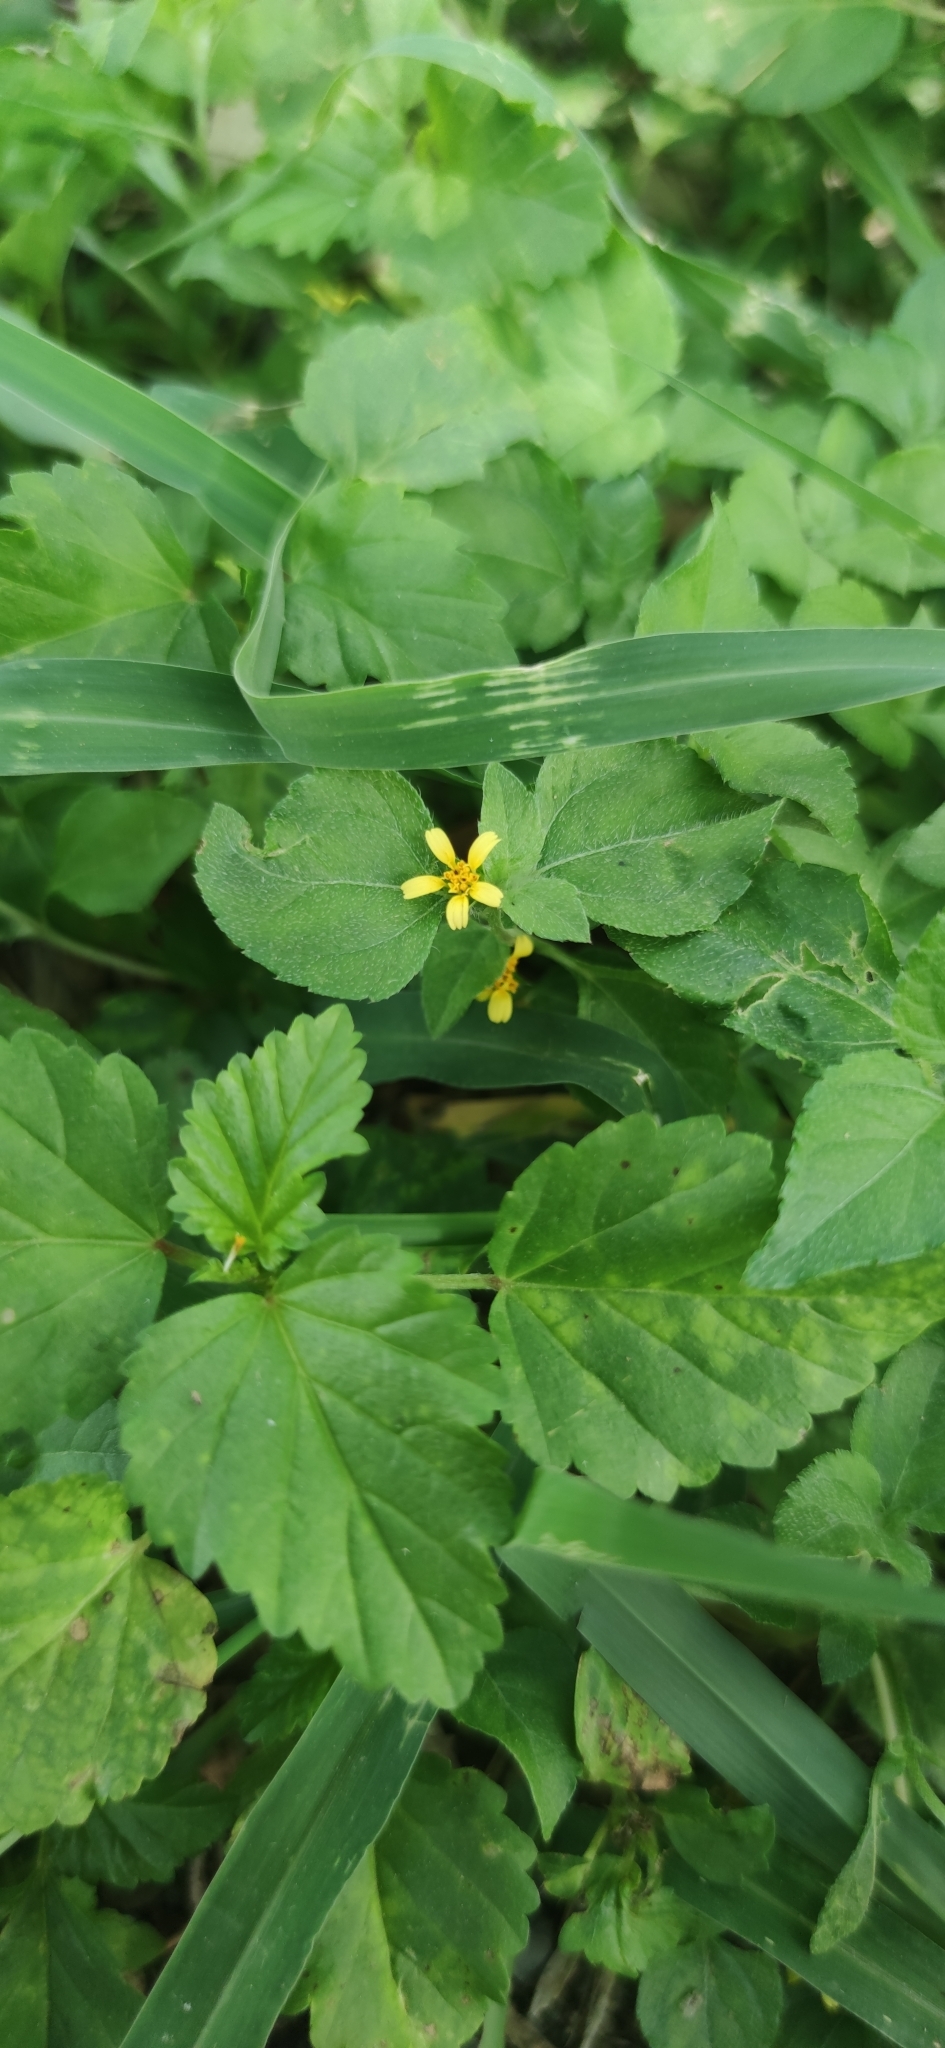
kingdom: Plantae
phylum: Tracheophyta
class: Magnoliopsida
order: Asterales
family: Asteraceae
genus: Calyptocarpus
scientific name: Calyptocarpus vialis
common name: Straggler daisy
